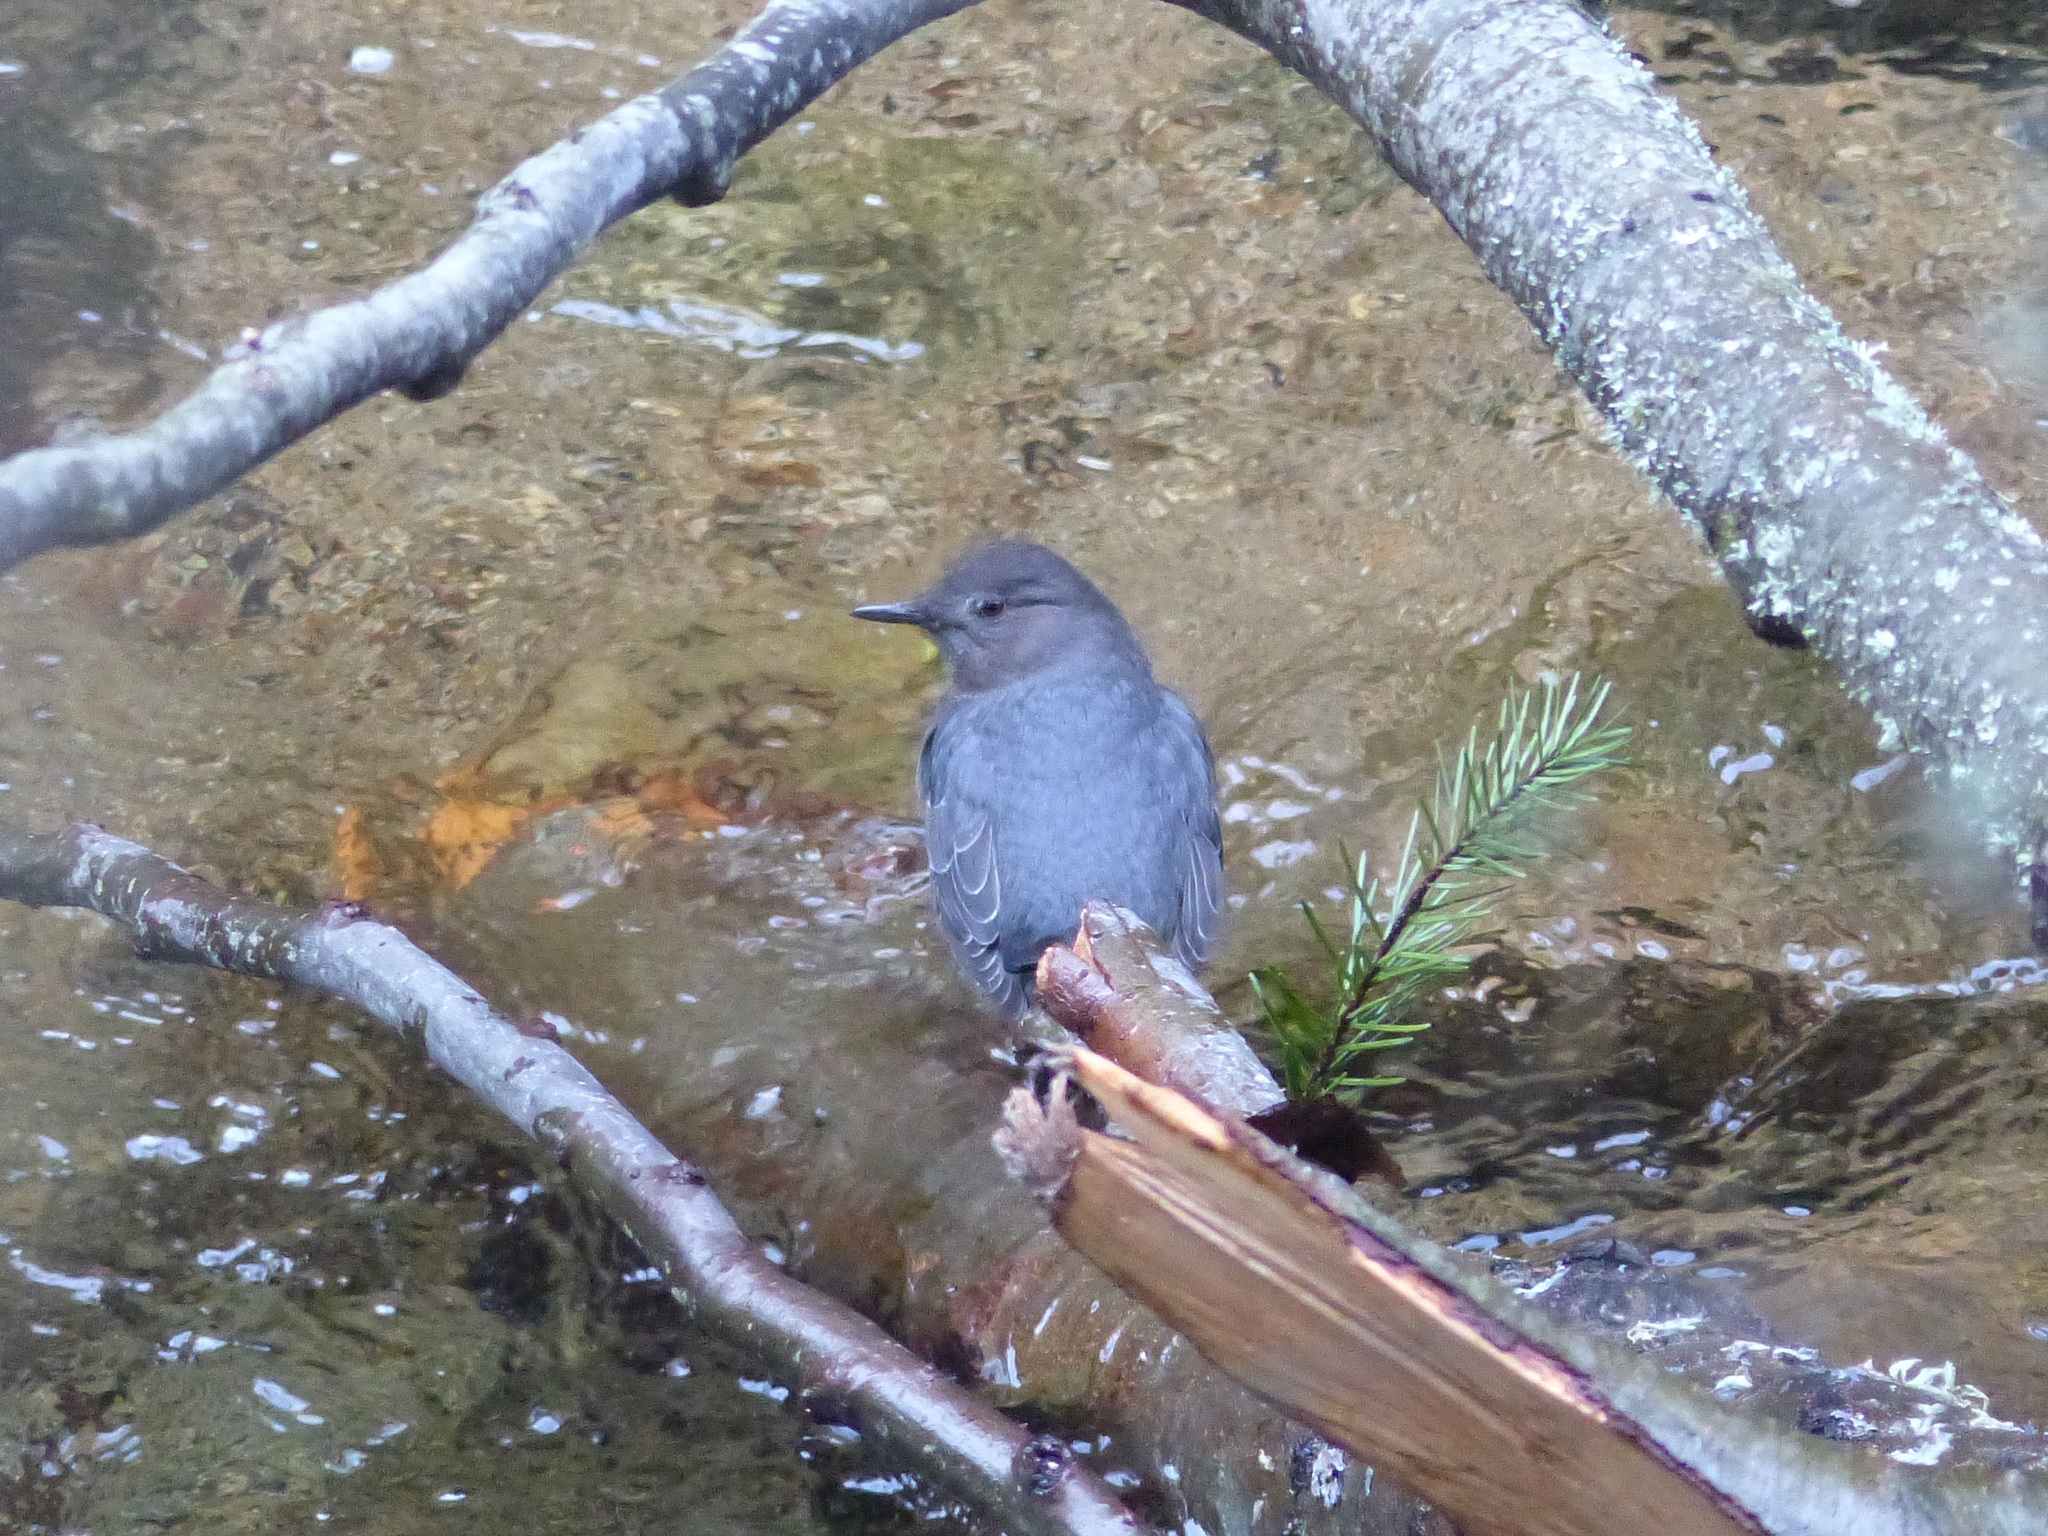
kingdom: Animalia
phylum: Chordata
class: Aves
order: Passeriformes
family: Cinclidae
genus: Cinclus
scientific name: Cinclus mexicanus
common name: American dipper
